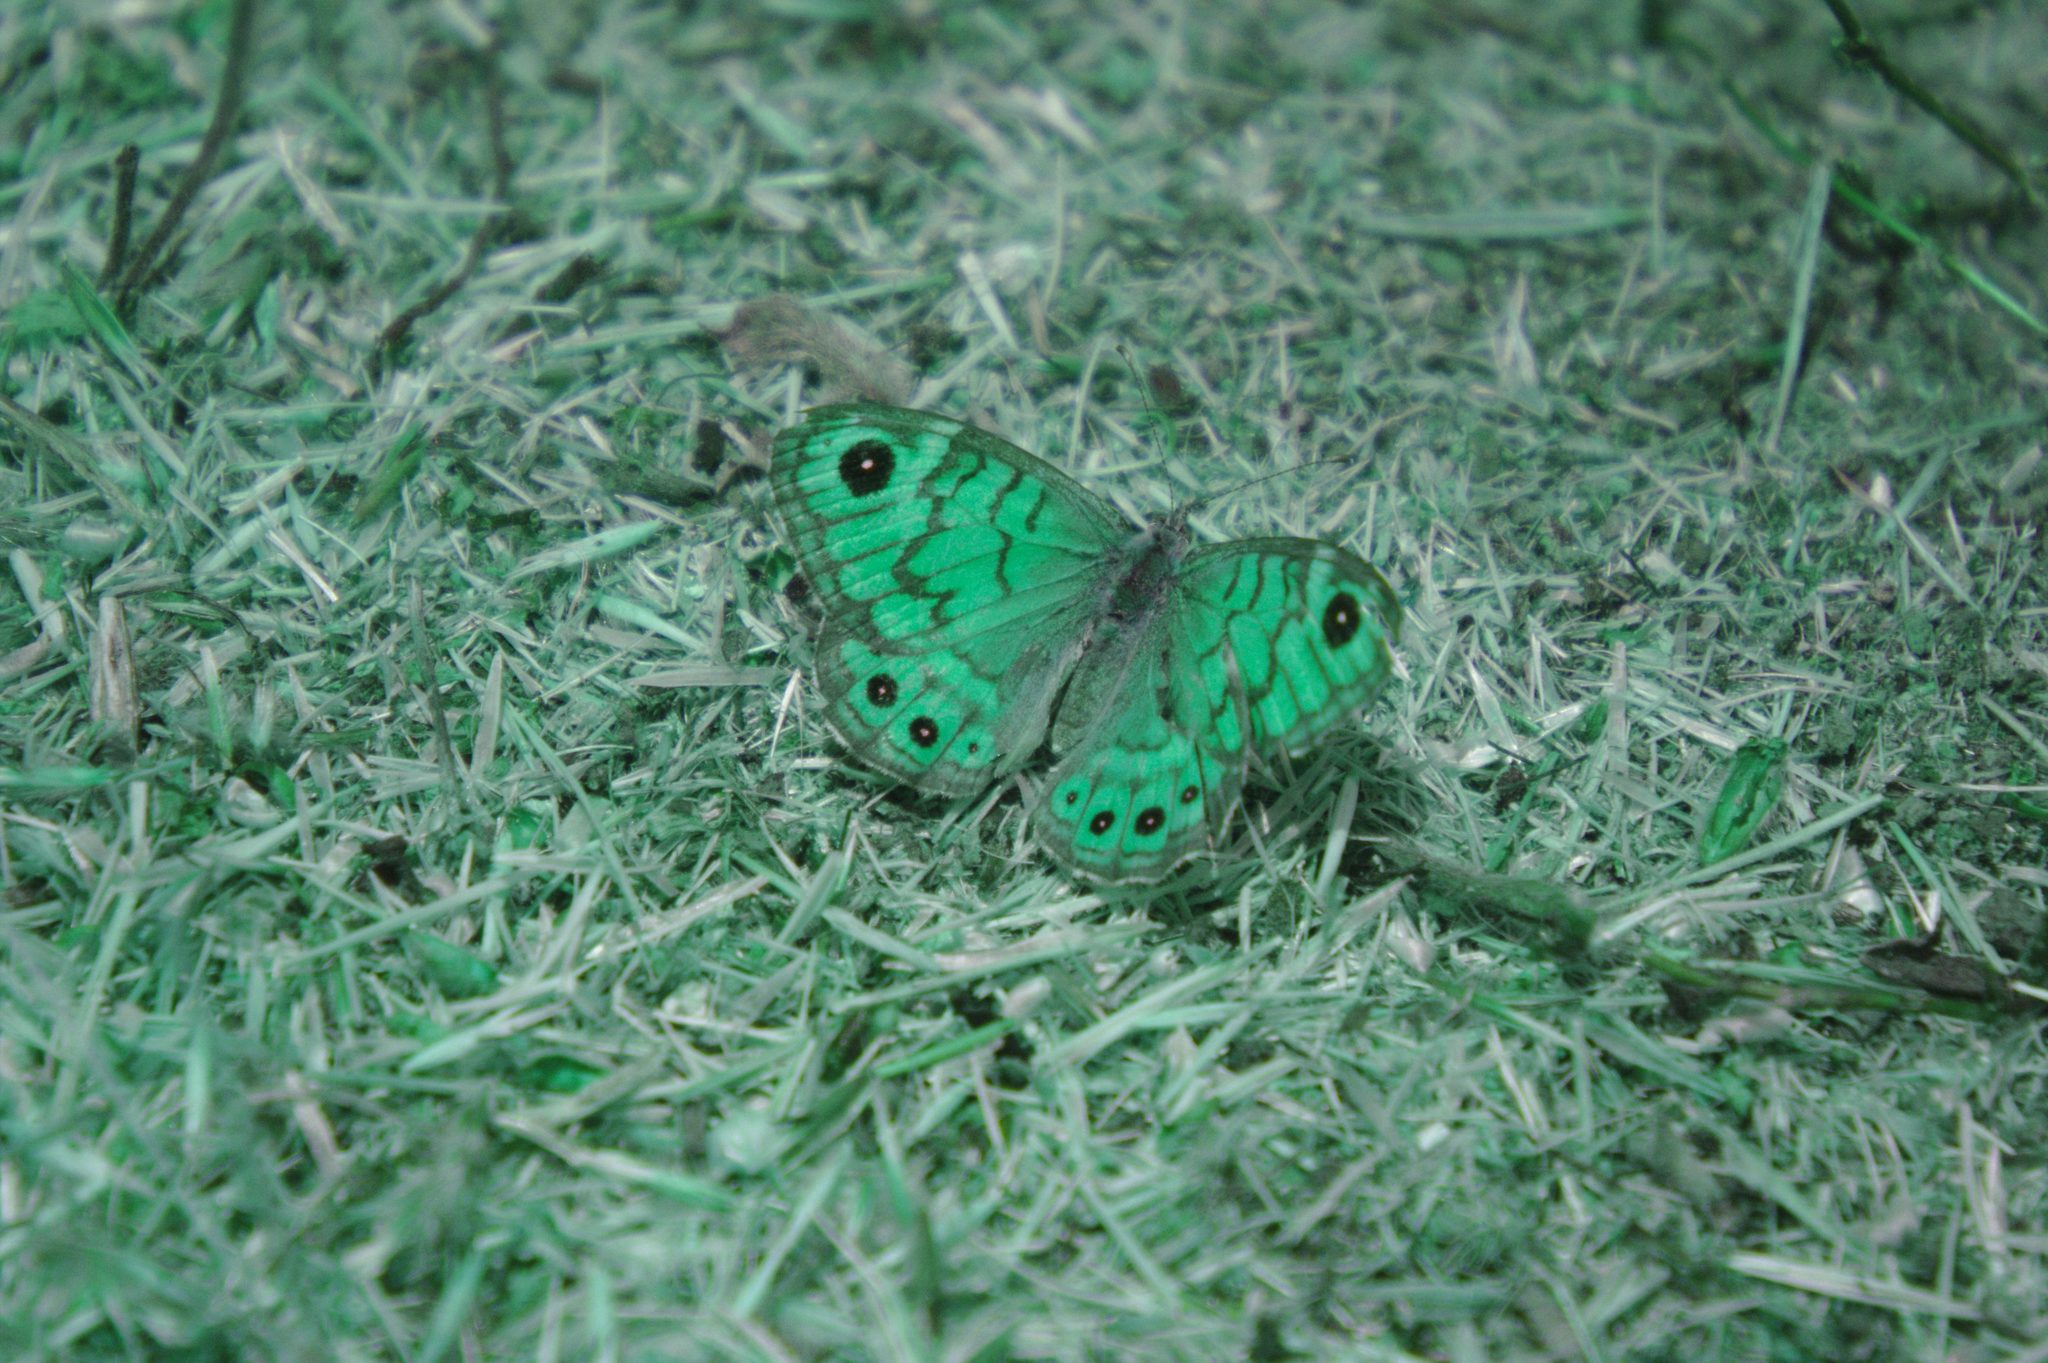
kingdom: Animalia
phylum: Arthropoda
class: Insecta
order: Lepidoptera
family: Nymphalidae
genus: Pararge
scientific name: Pararge Lasiommata megera
